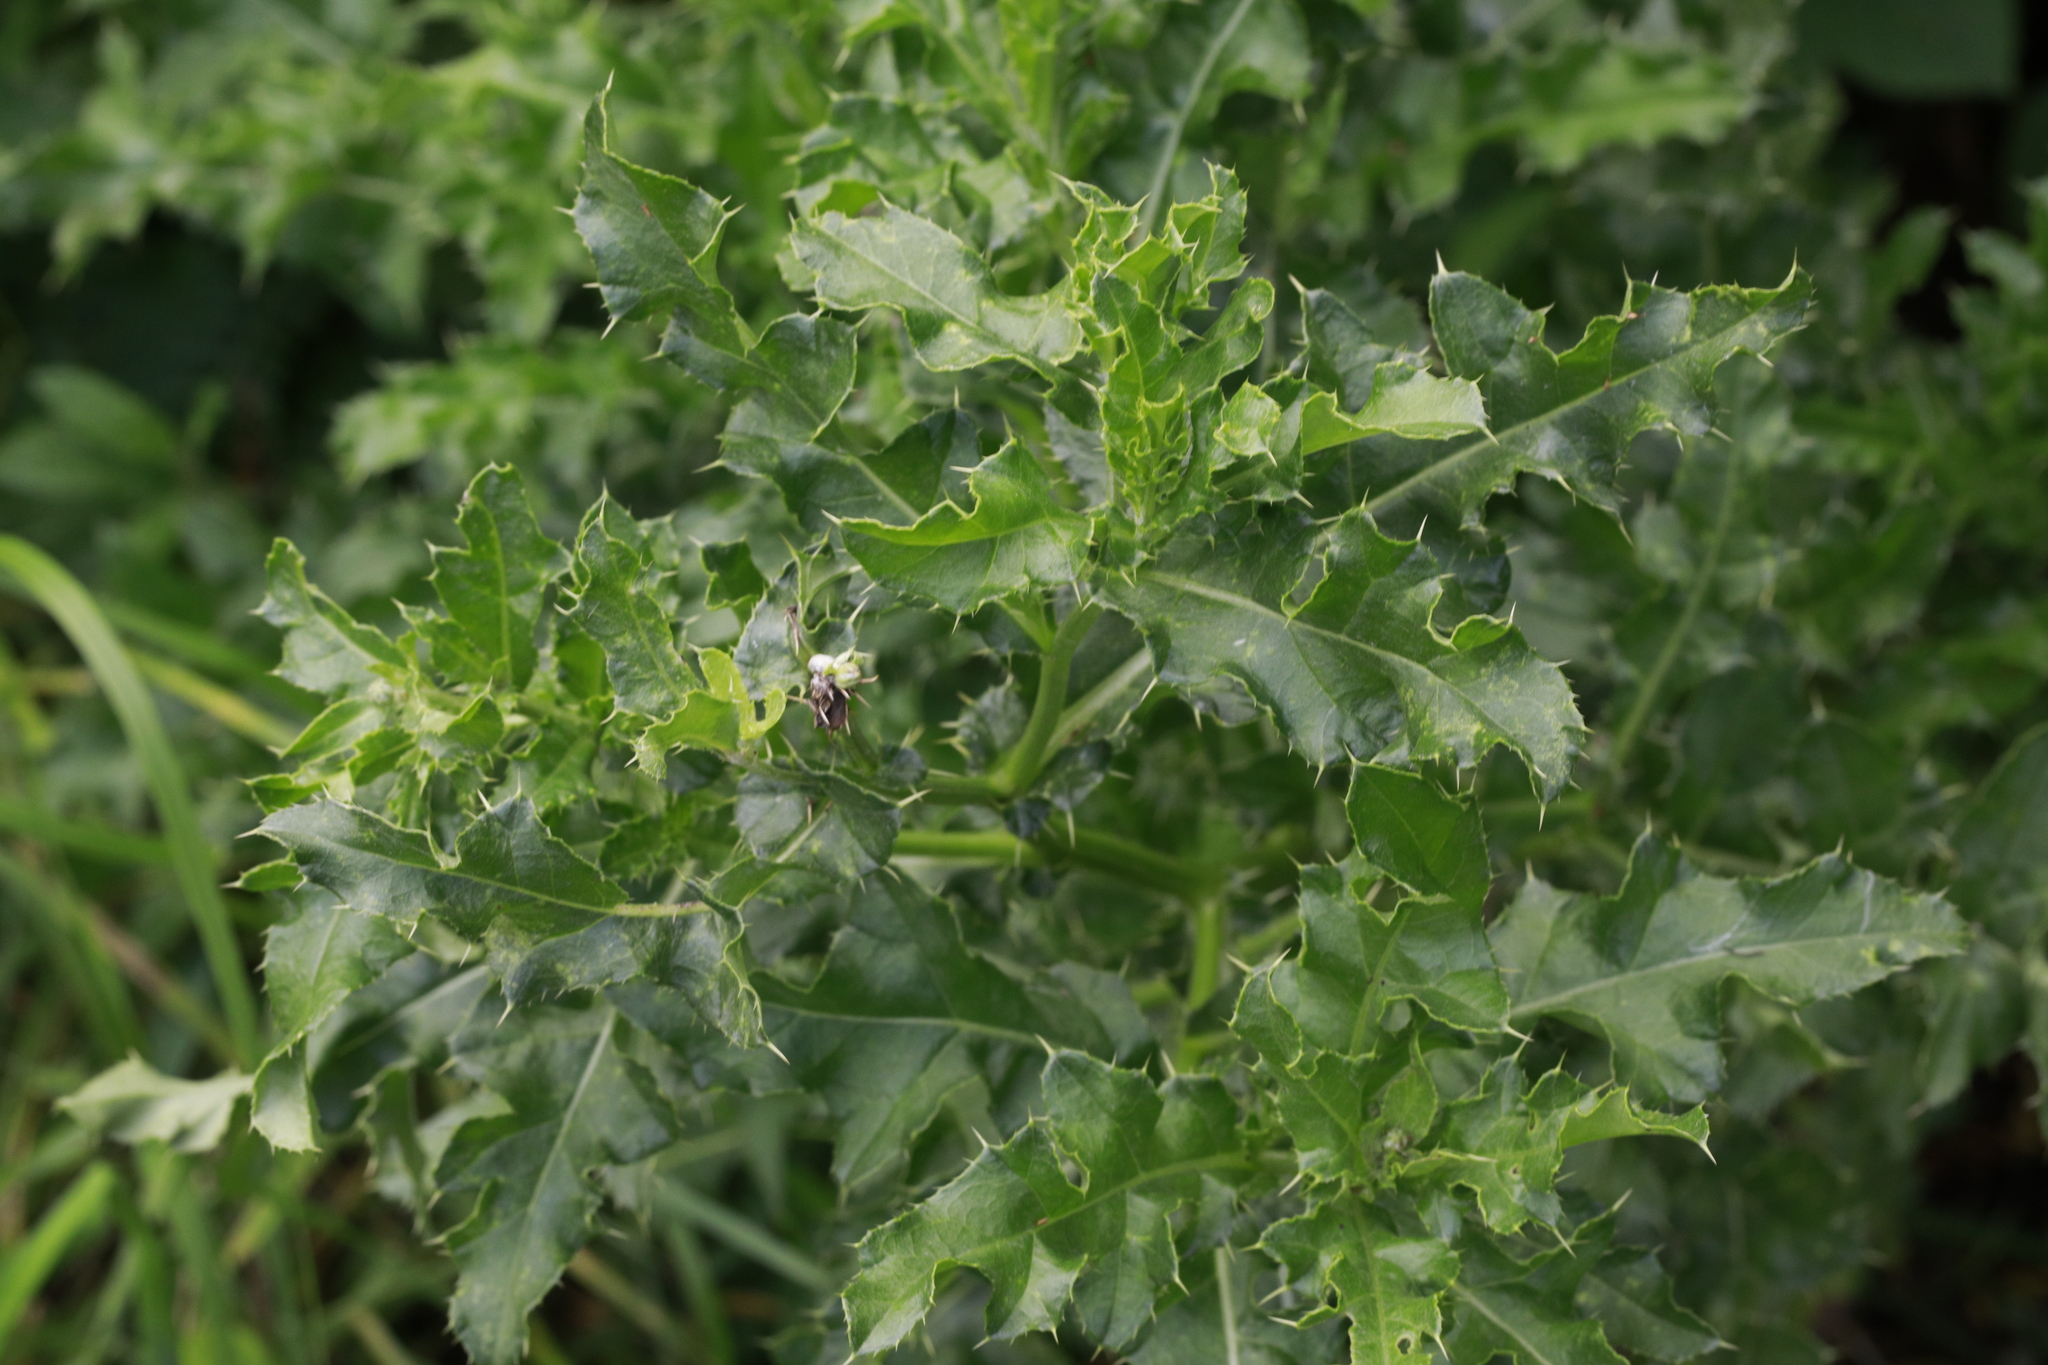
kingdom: Plantae
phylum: Tracheophyta
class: Magnoliopsida
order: Asterales
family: Asteraceae
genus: Cirsium
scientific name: Cirsium arvense
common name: Creeping thistle
